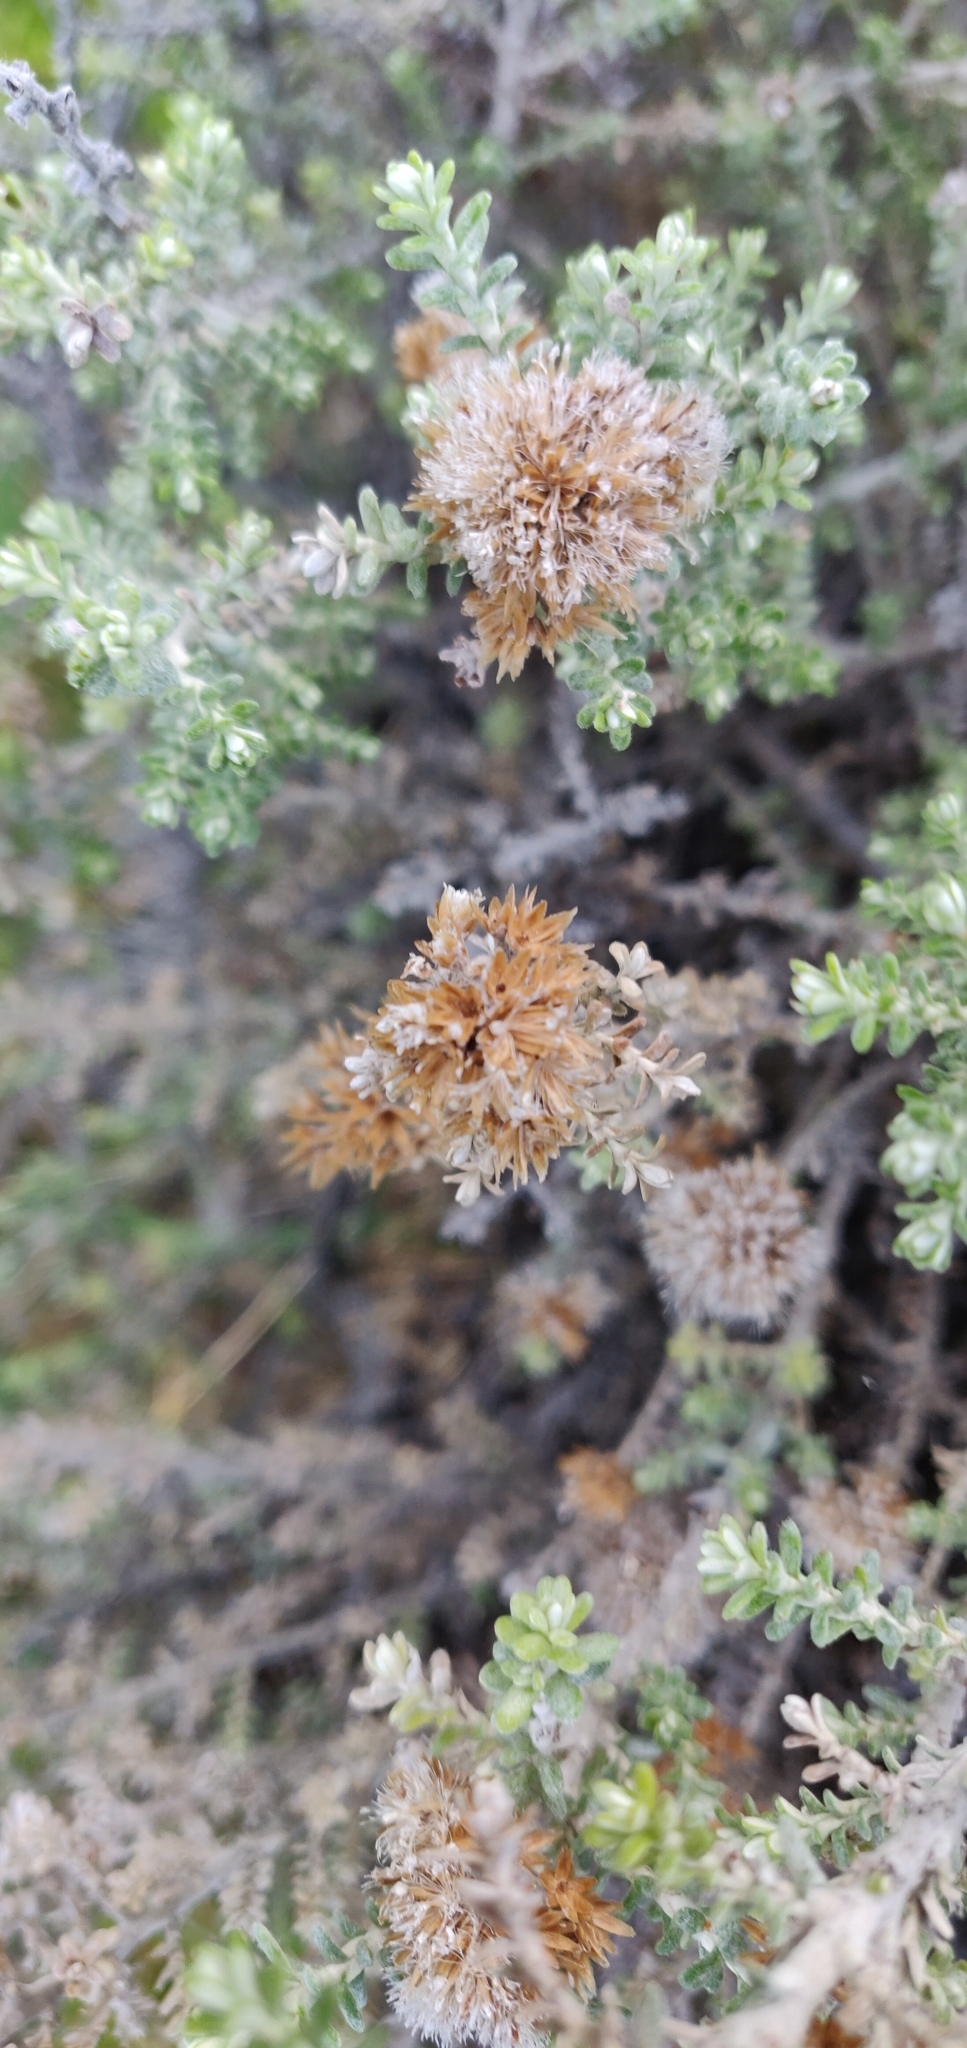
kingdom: Plantae
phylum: Tracheophyta
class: Magnoliopsida
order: Asterales
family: Asteraceae
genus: Ozothamnus
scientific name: Ozothamnus leptophyllus
